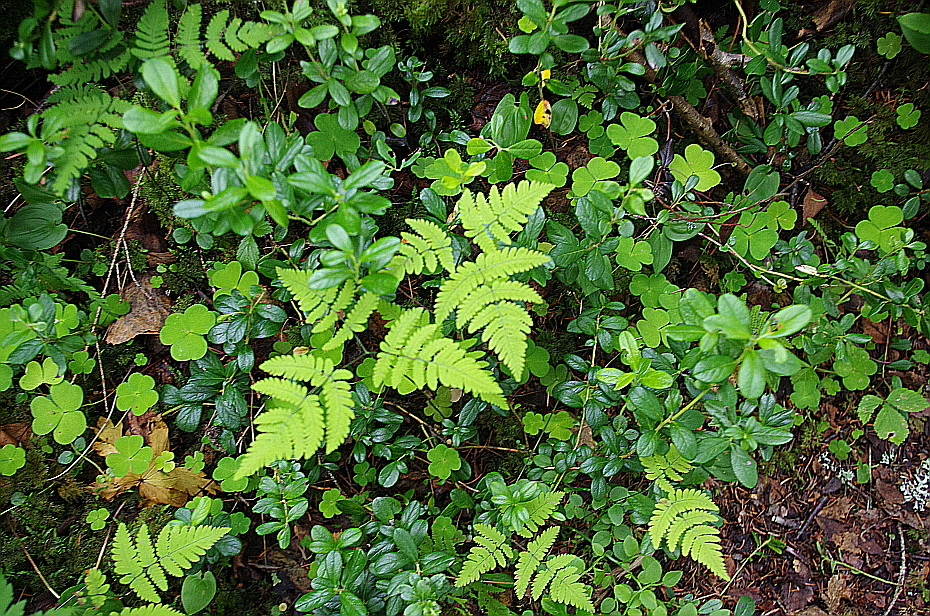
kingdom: Plantae
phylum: Tracheophyta
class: Polypodiopsida
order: Polypodiales
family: Cystopteridaceae
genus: Gymnocarpium
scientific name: Gymnocarpium dryopteris
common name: Oak fern
